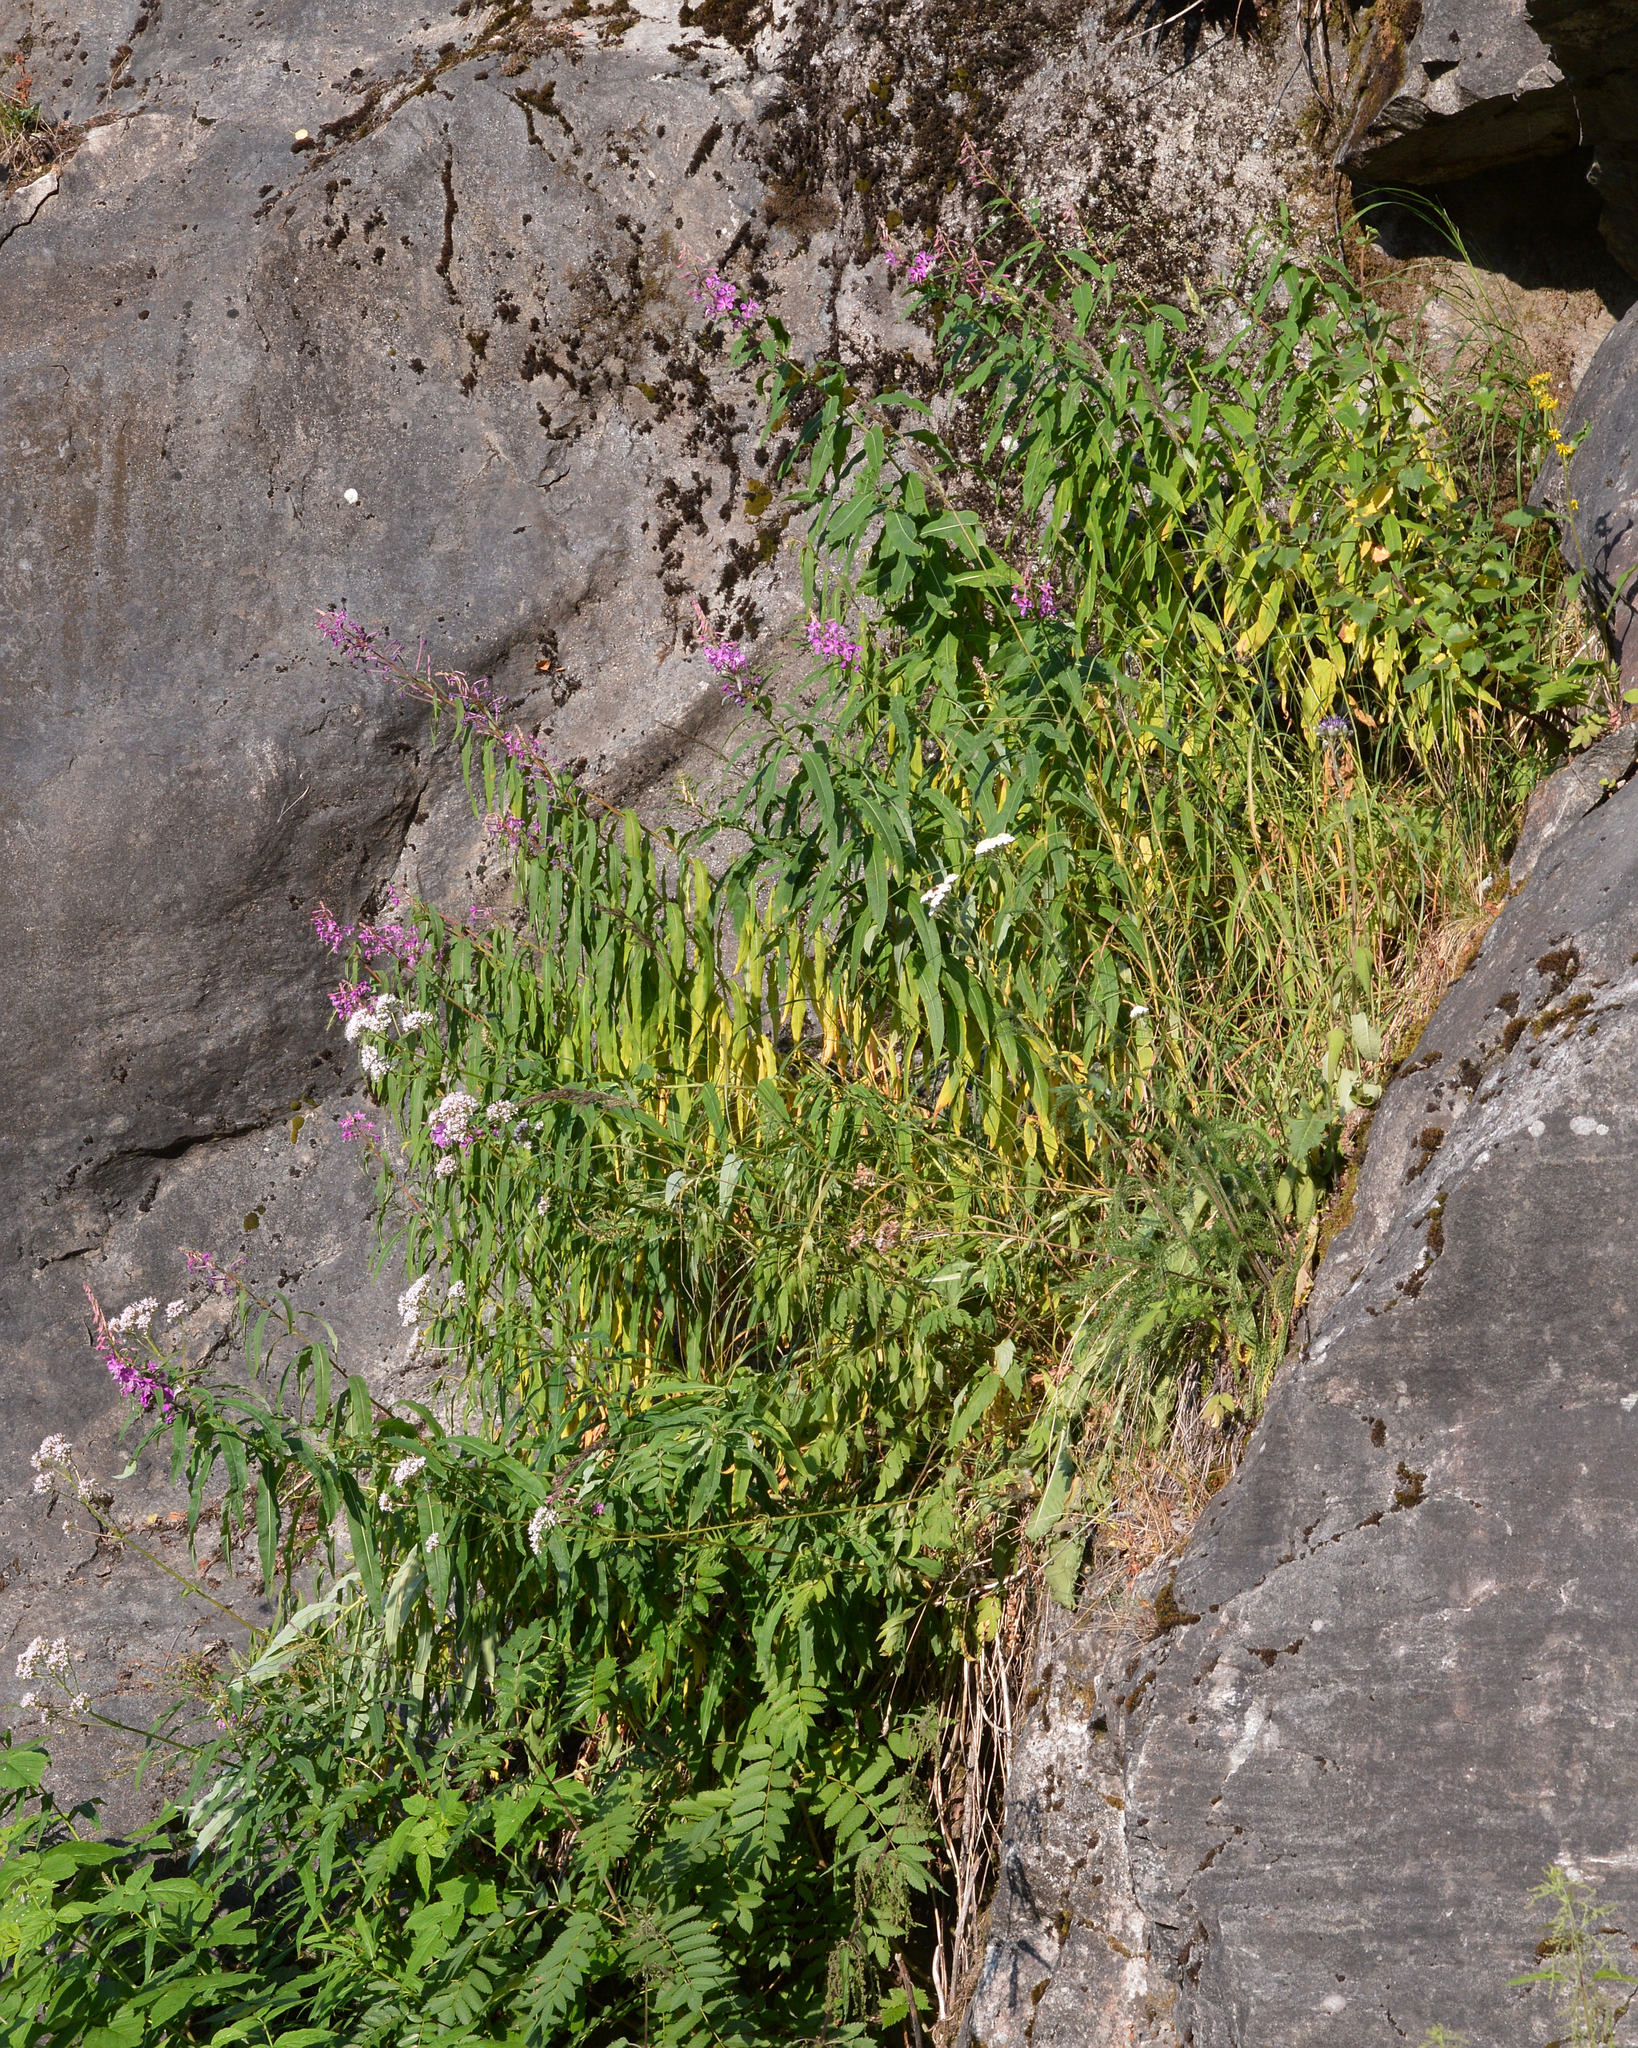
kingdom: Plantae
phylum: Tracheophyta
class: Magnoliopsida
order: Myrtales
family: Onagraceae
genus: Chamaenerion
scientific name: Chamaenerion angustifolium
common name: Fireweed
